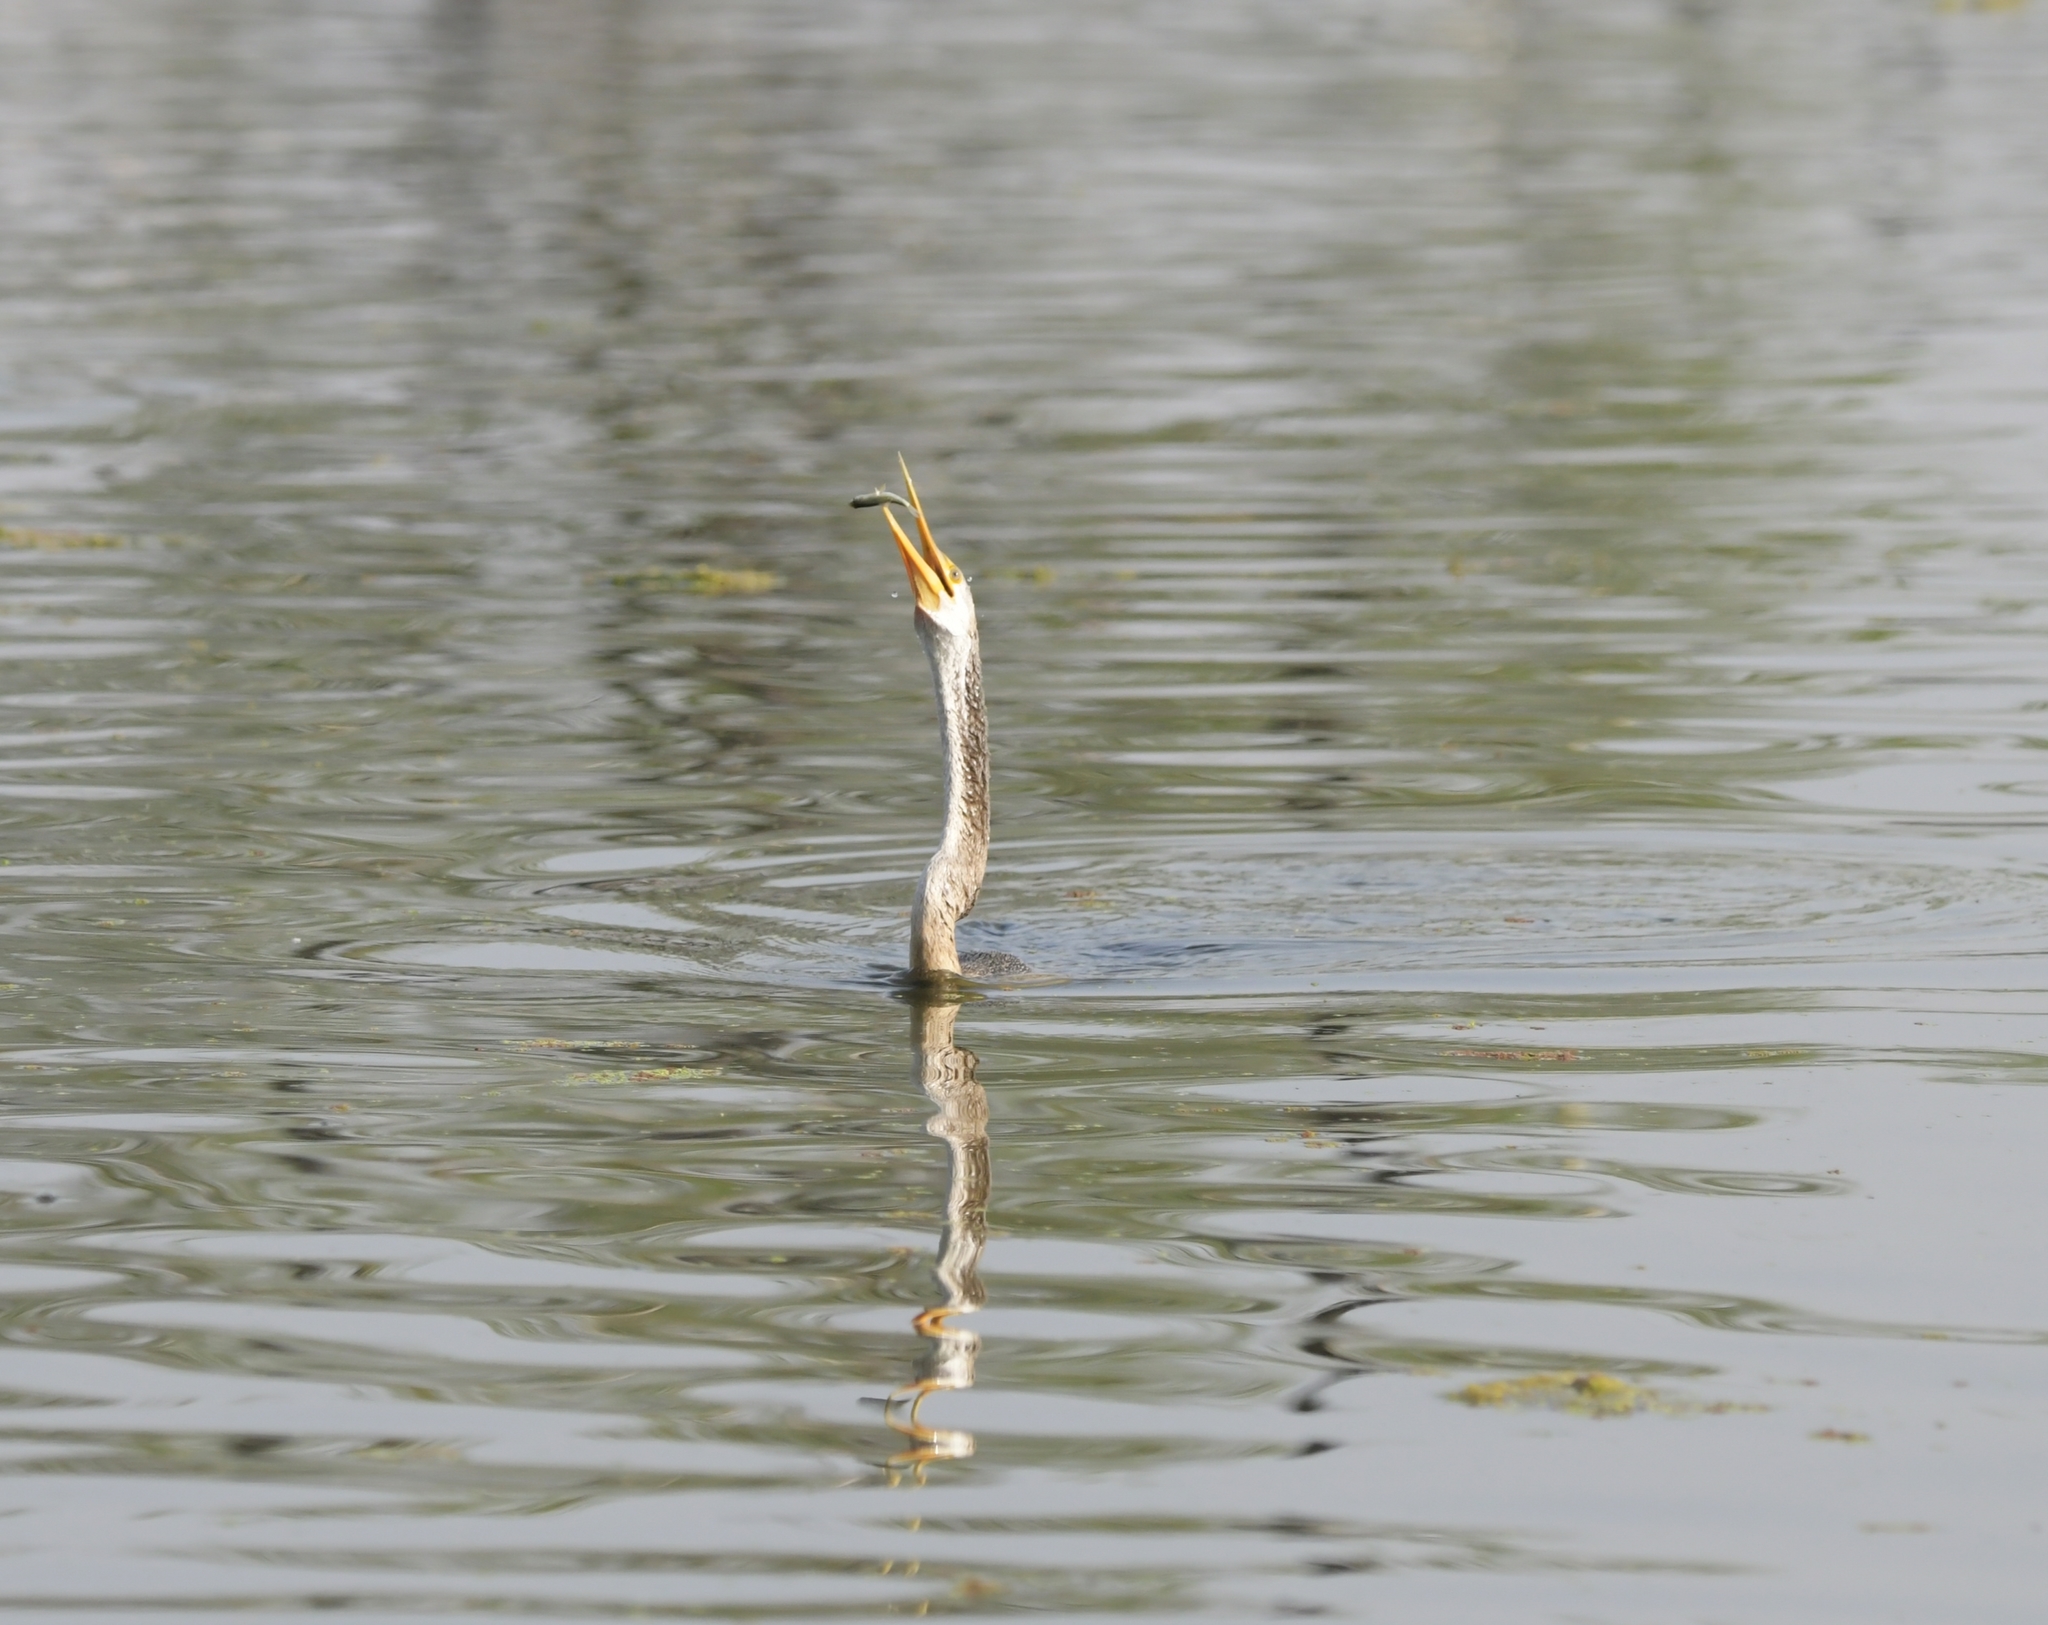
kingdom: Animalia
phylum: Chordata
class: Aves
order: Suliformes
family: Anhingidae
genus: Anhinga
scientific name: Anhinga melanogaster
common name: Oriental darter
